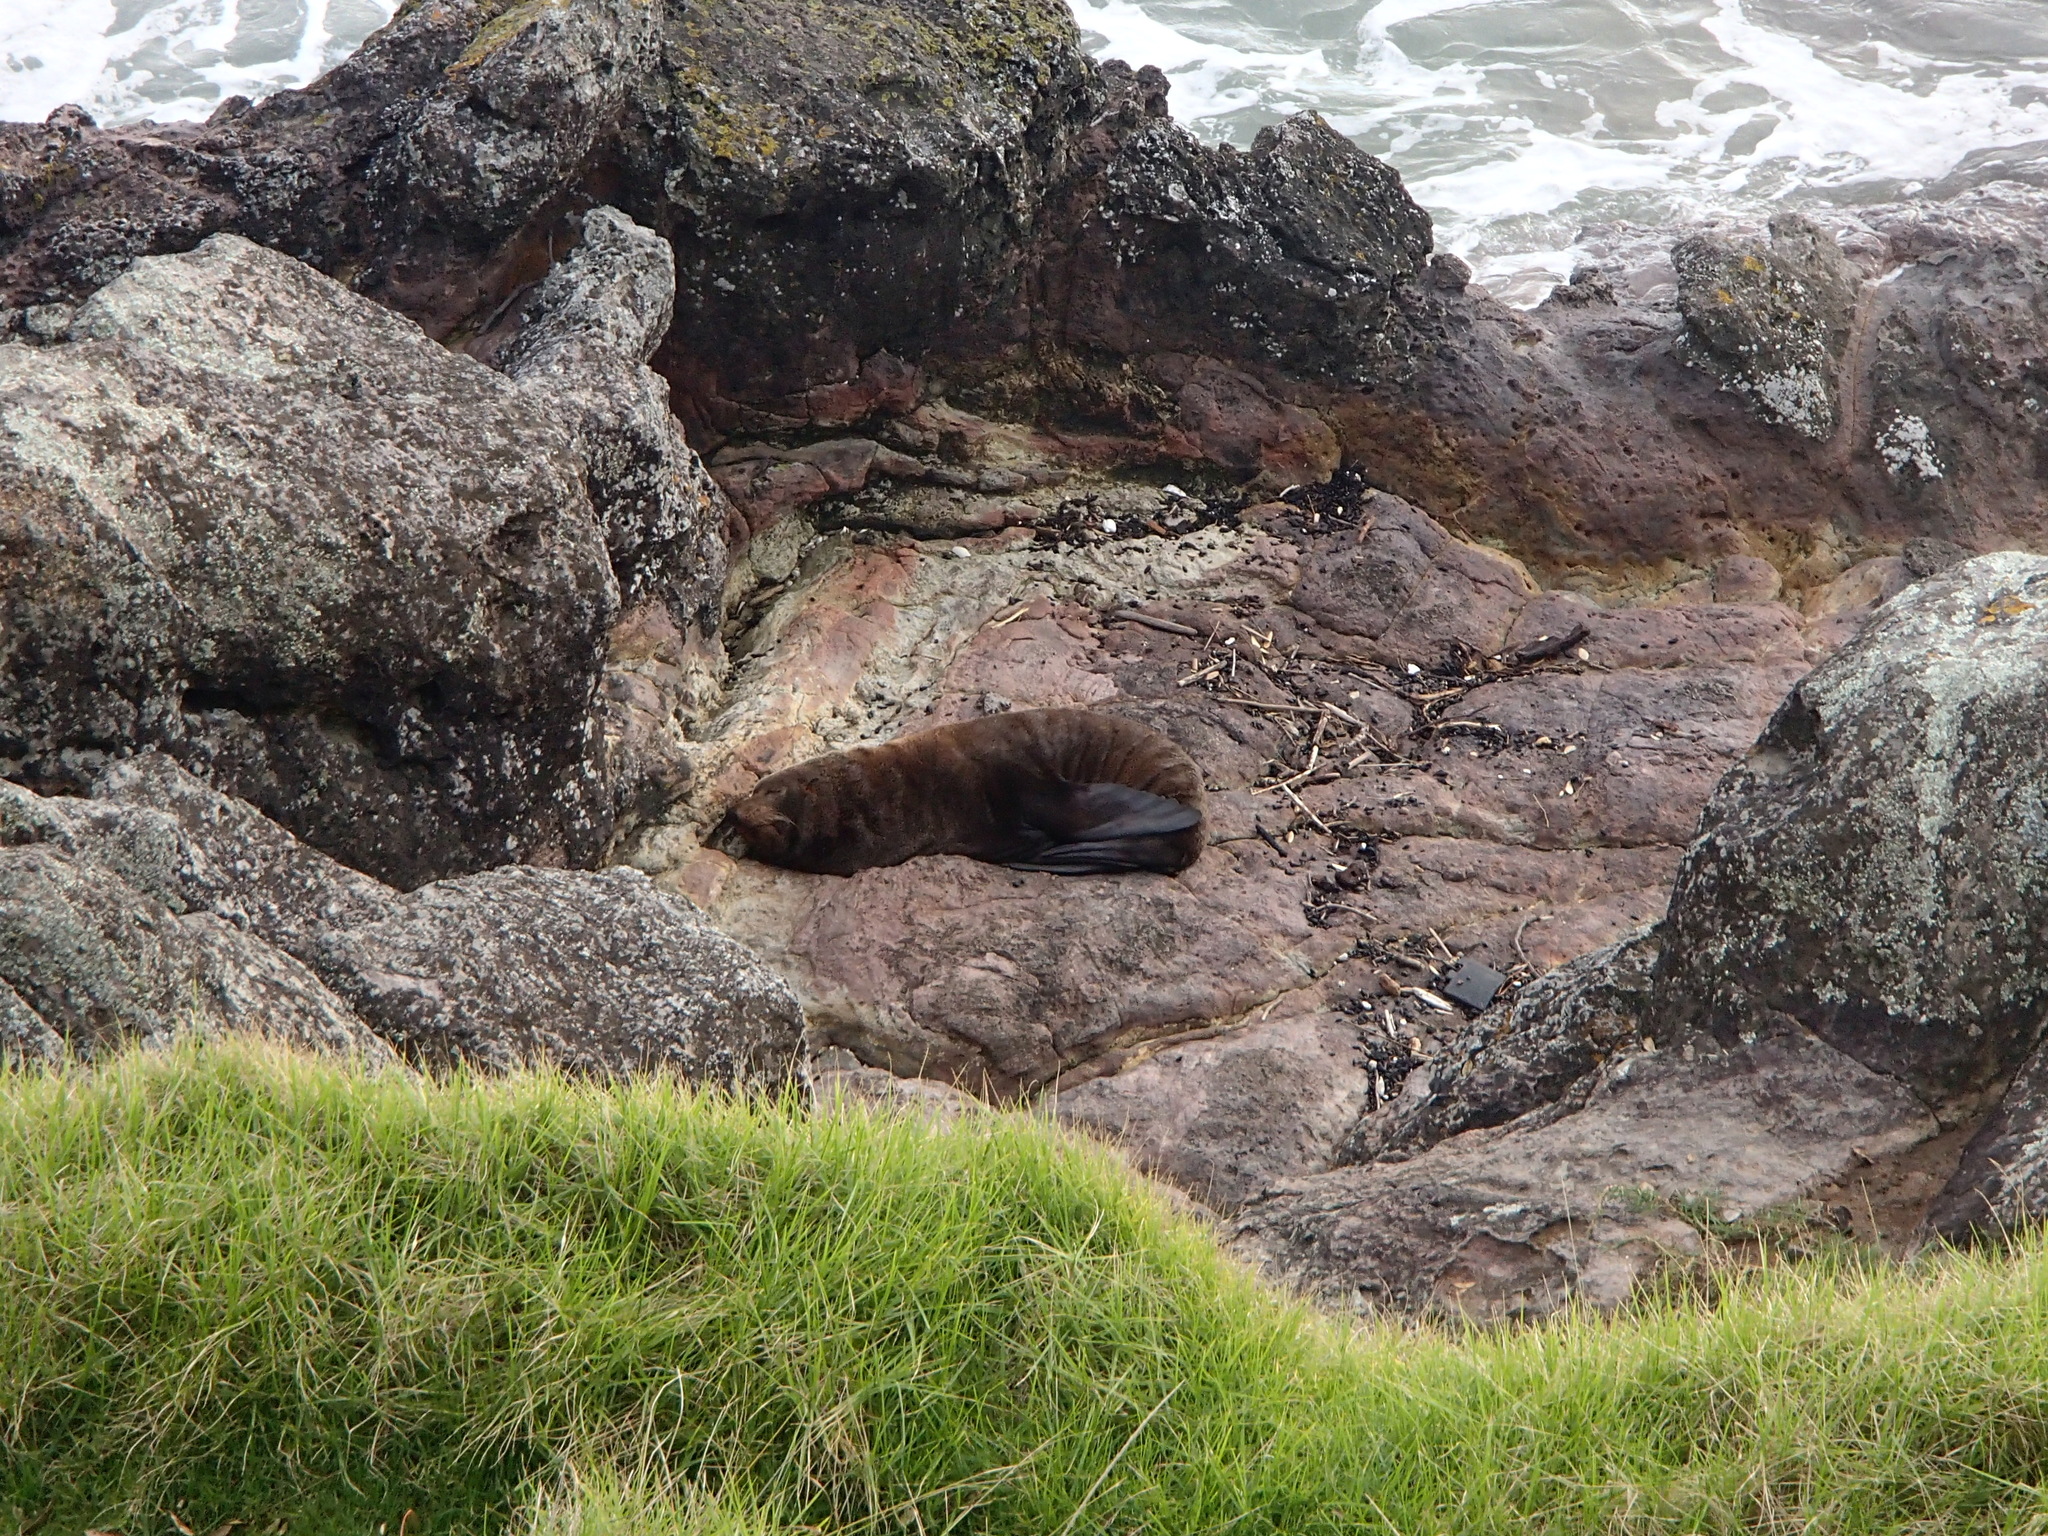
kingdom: Animalia
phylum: Chordata
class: Mammalia
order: Carnivora
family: Otariidae
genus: Arctocephalus
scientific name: Arctocephalus forsteri
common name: New zealand fur seal
